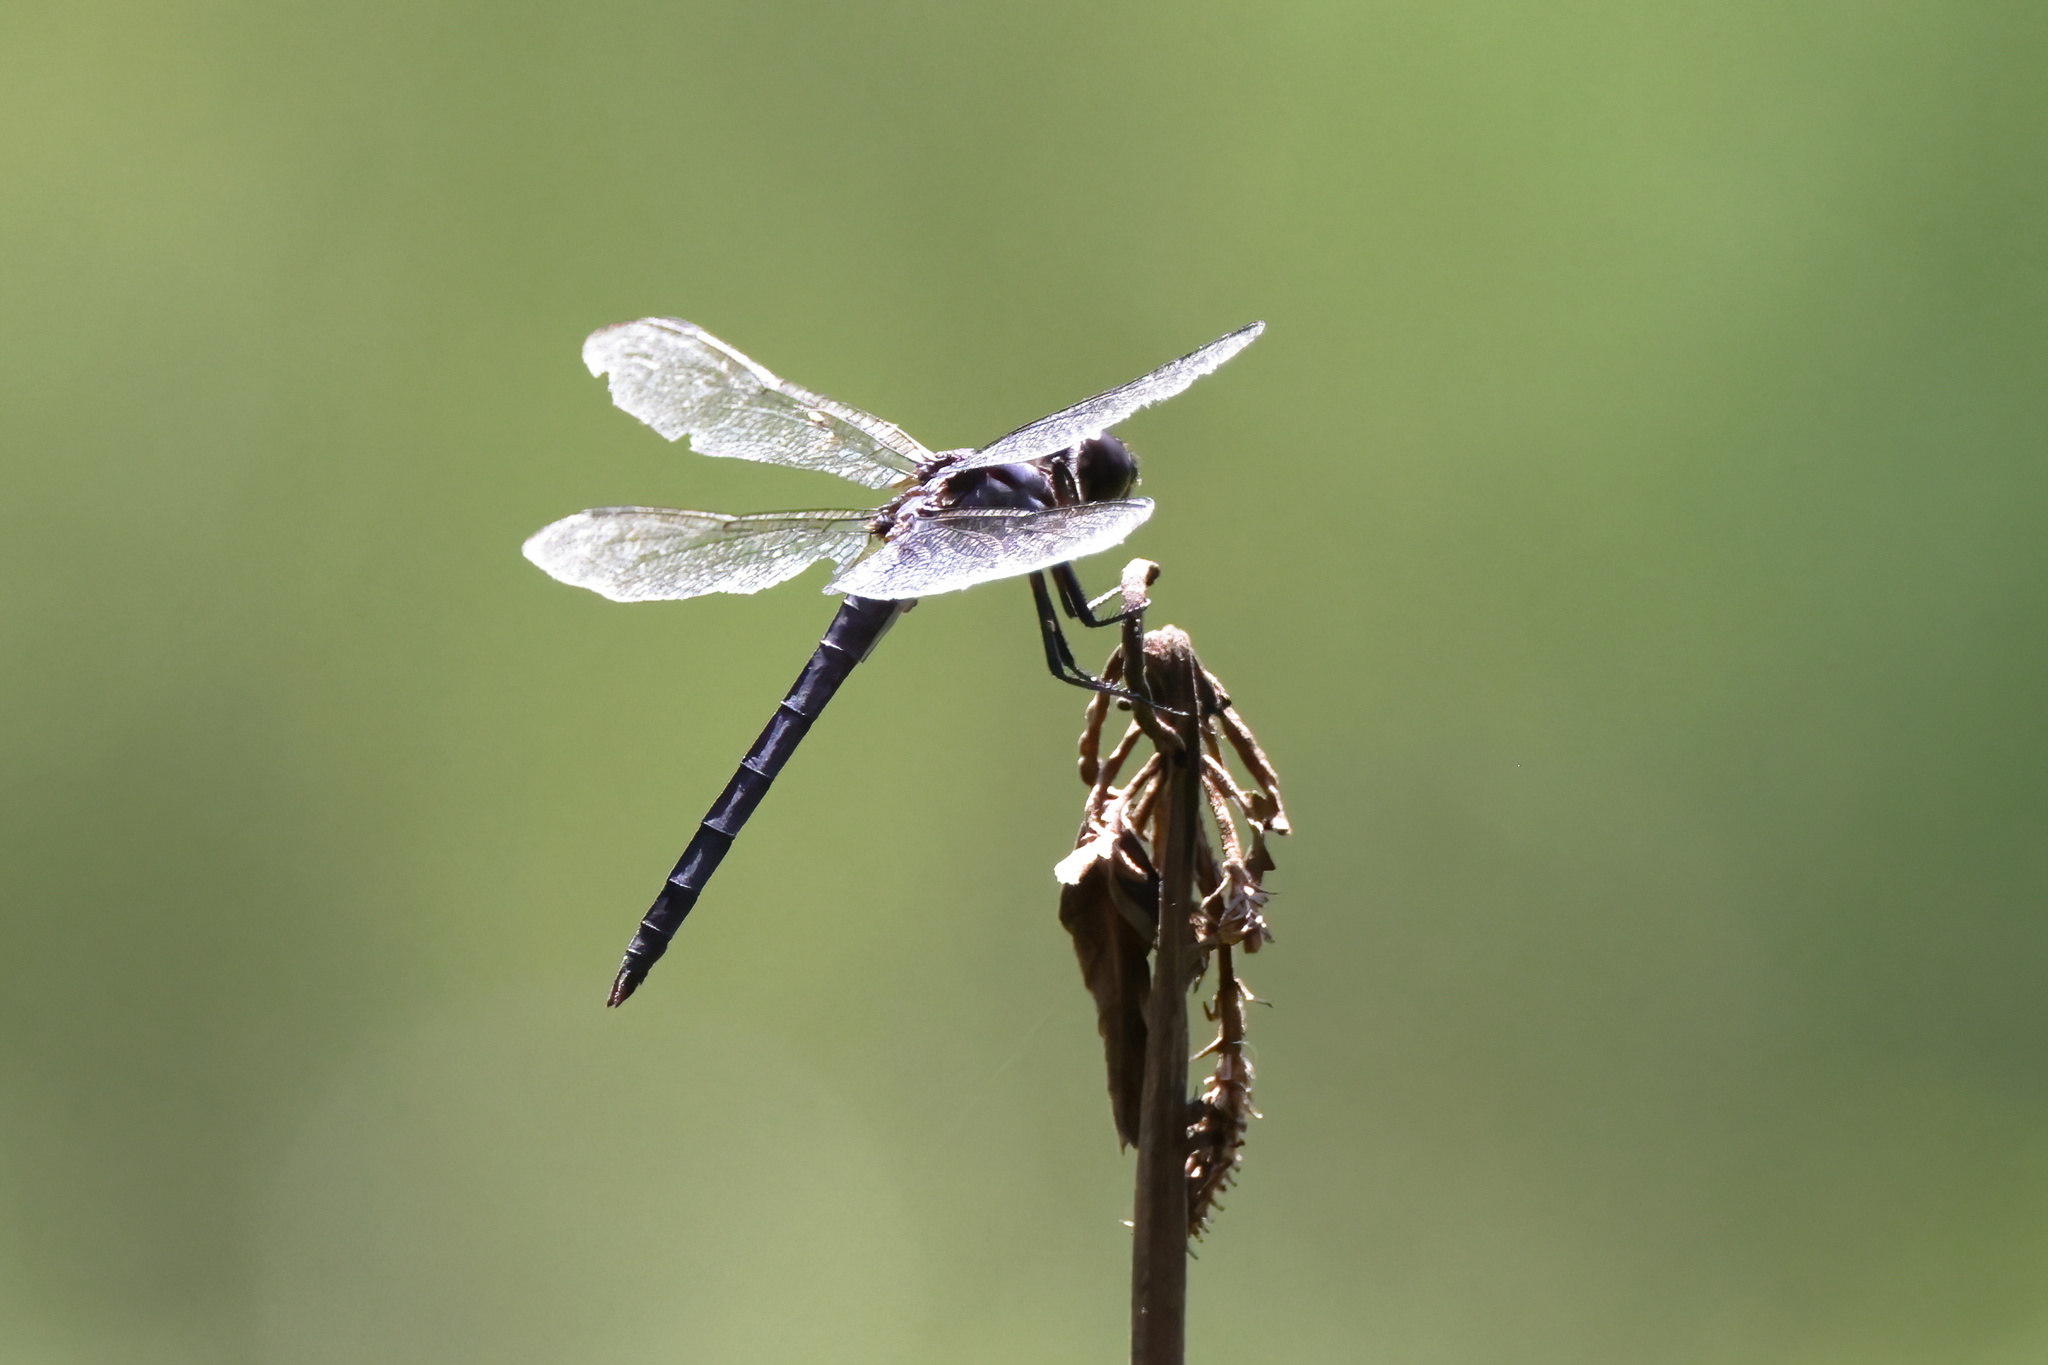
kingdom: Animalia
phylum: Arthropoda
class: Insecta
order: Odonata
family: Libellulidae
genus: Libellula
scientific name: Libellula incesta
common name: Slaty skimmer
